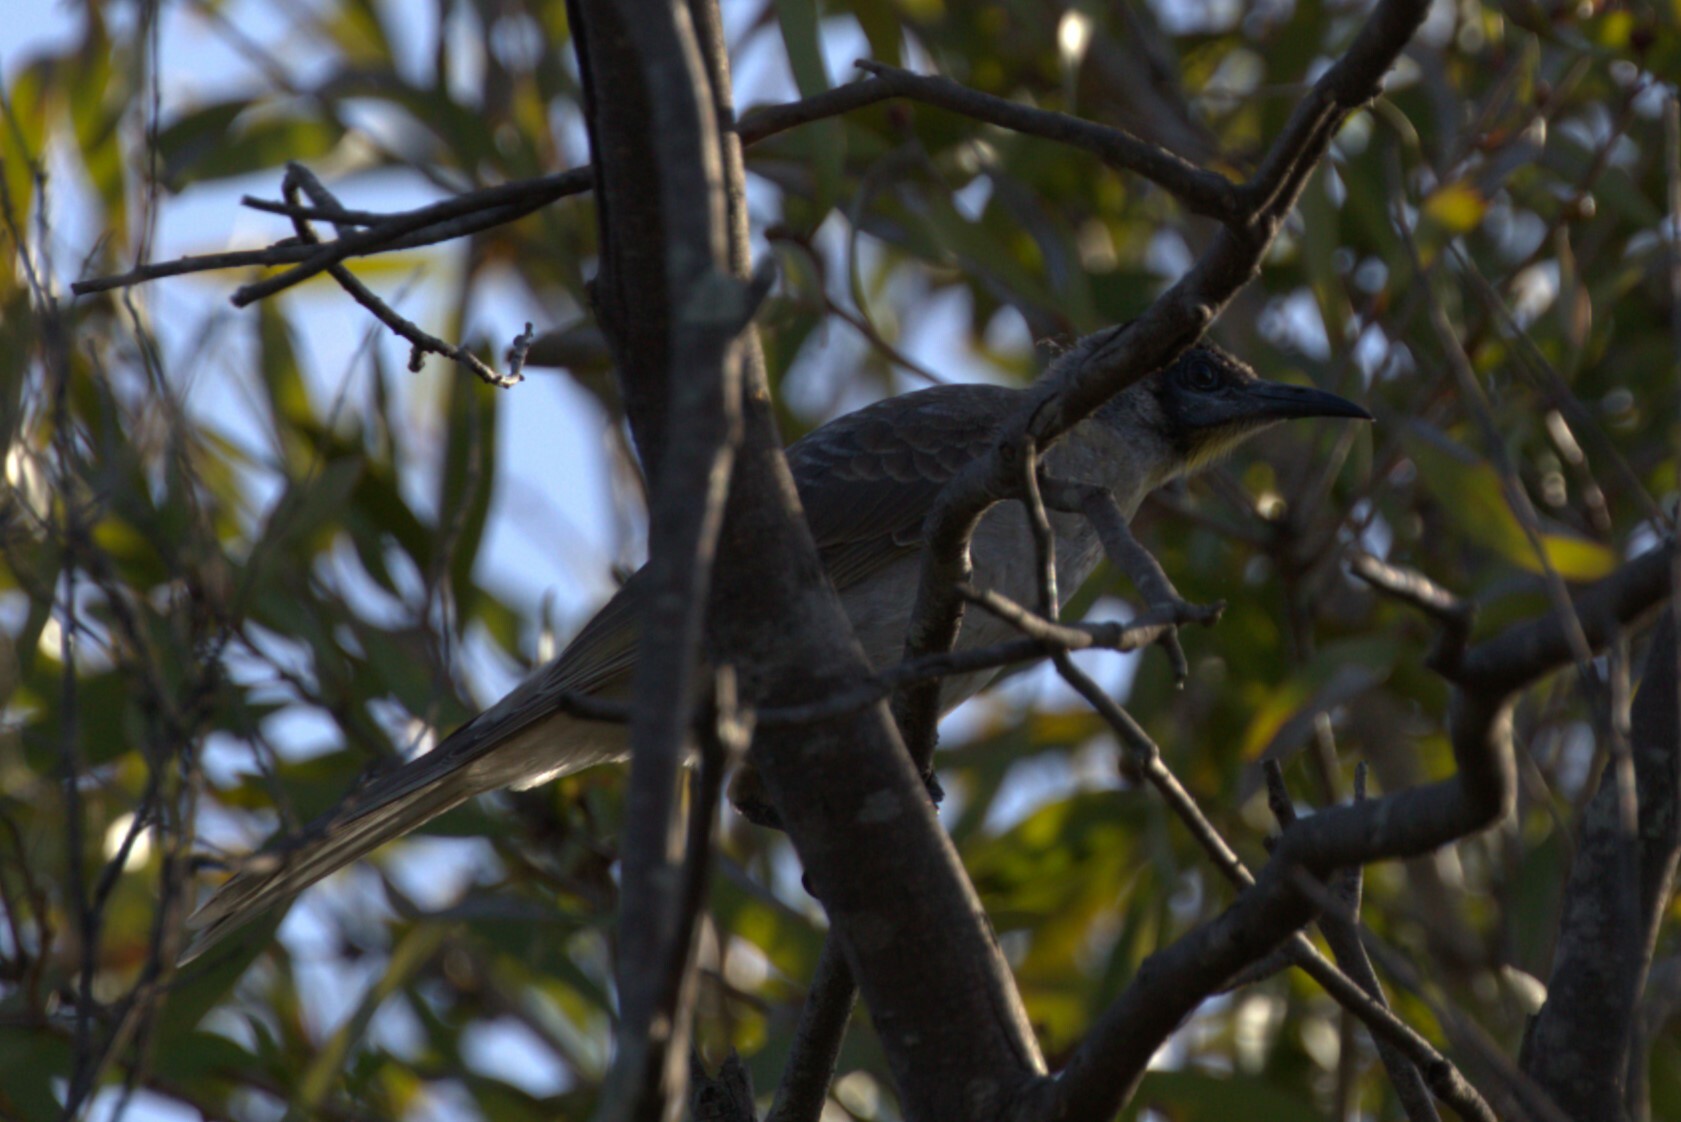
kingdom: Animalia
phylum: Chordata
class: Aves
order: Passeriformes
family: Meliphagidae
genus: Philemon
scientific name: Philemon citreogularis
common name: Little friarbird
